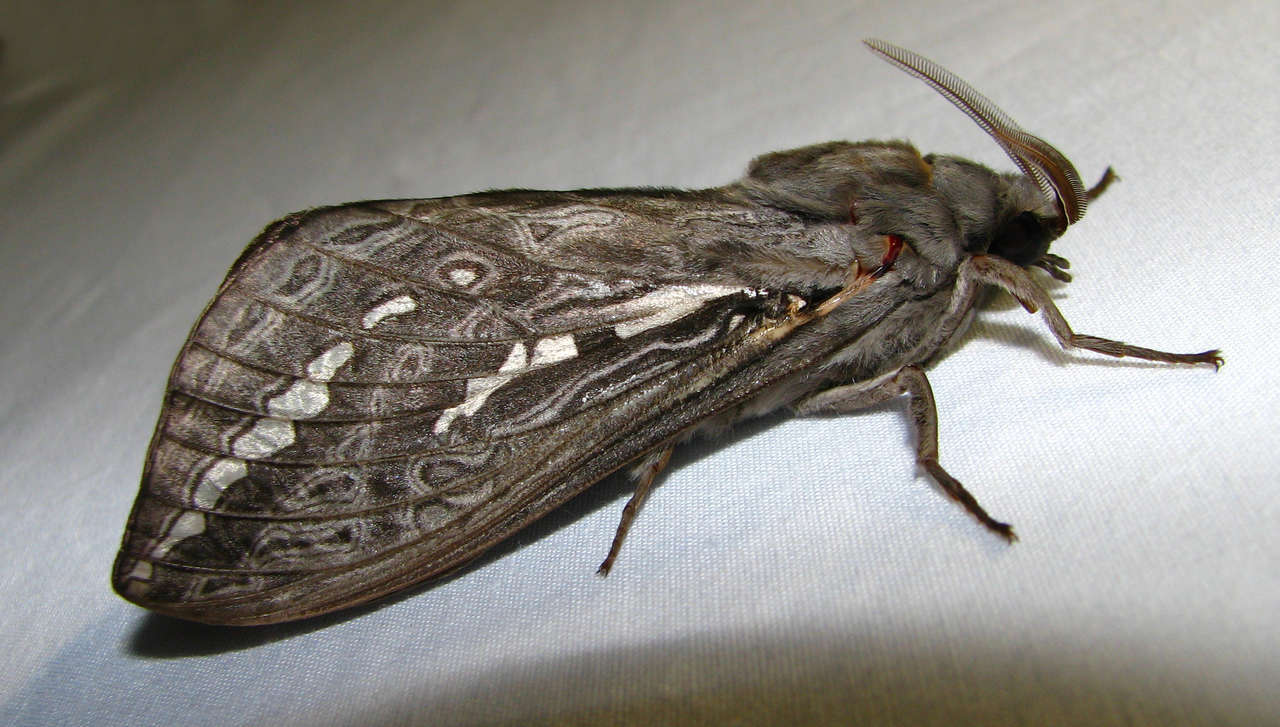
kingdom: Animalia
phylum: Arthropoda
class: Insecta
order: Lepidoptera
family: Hepialidae
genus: Abantiades
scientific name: Abantiades argentata
